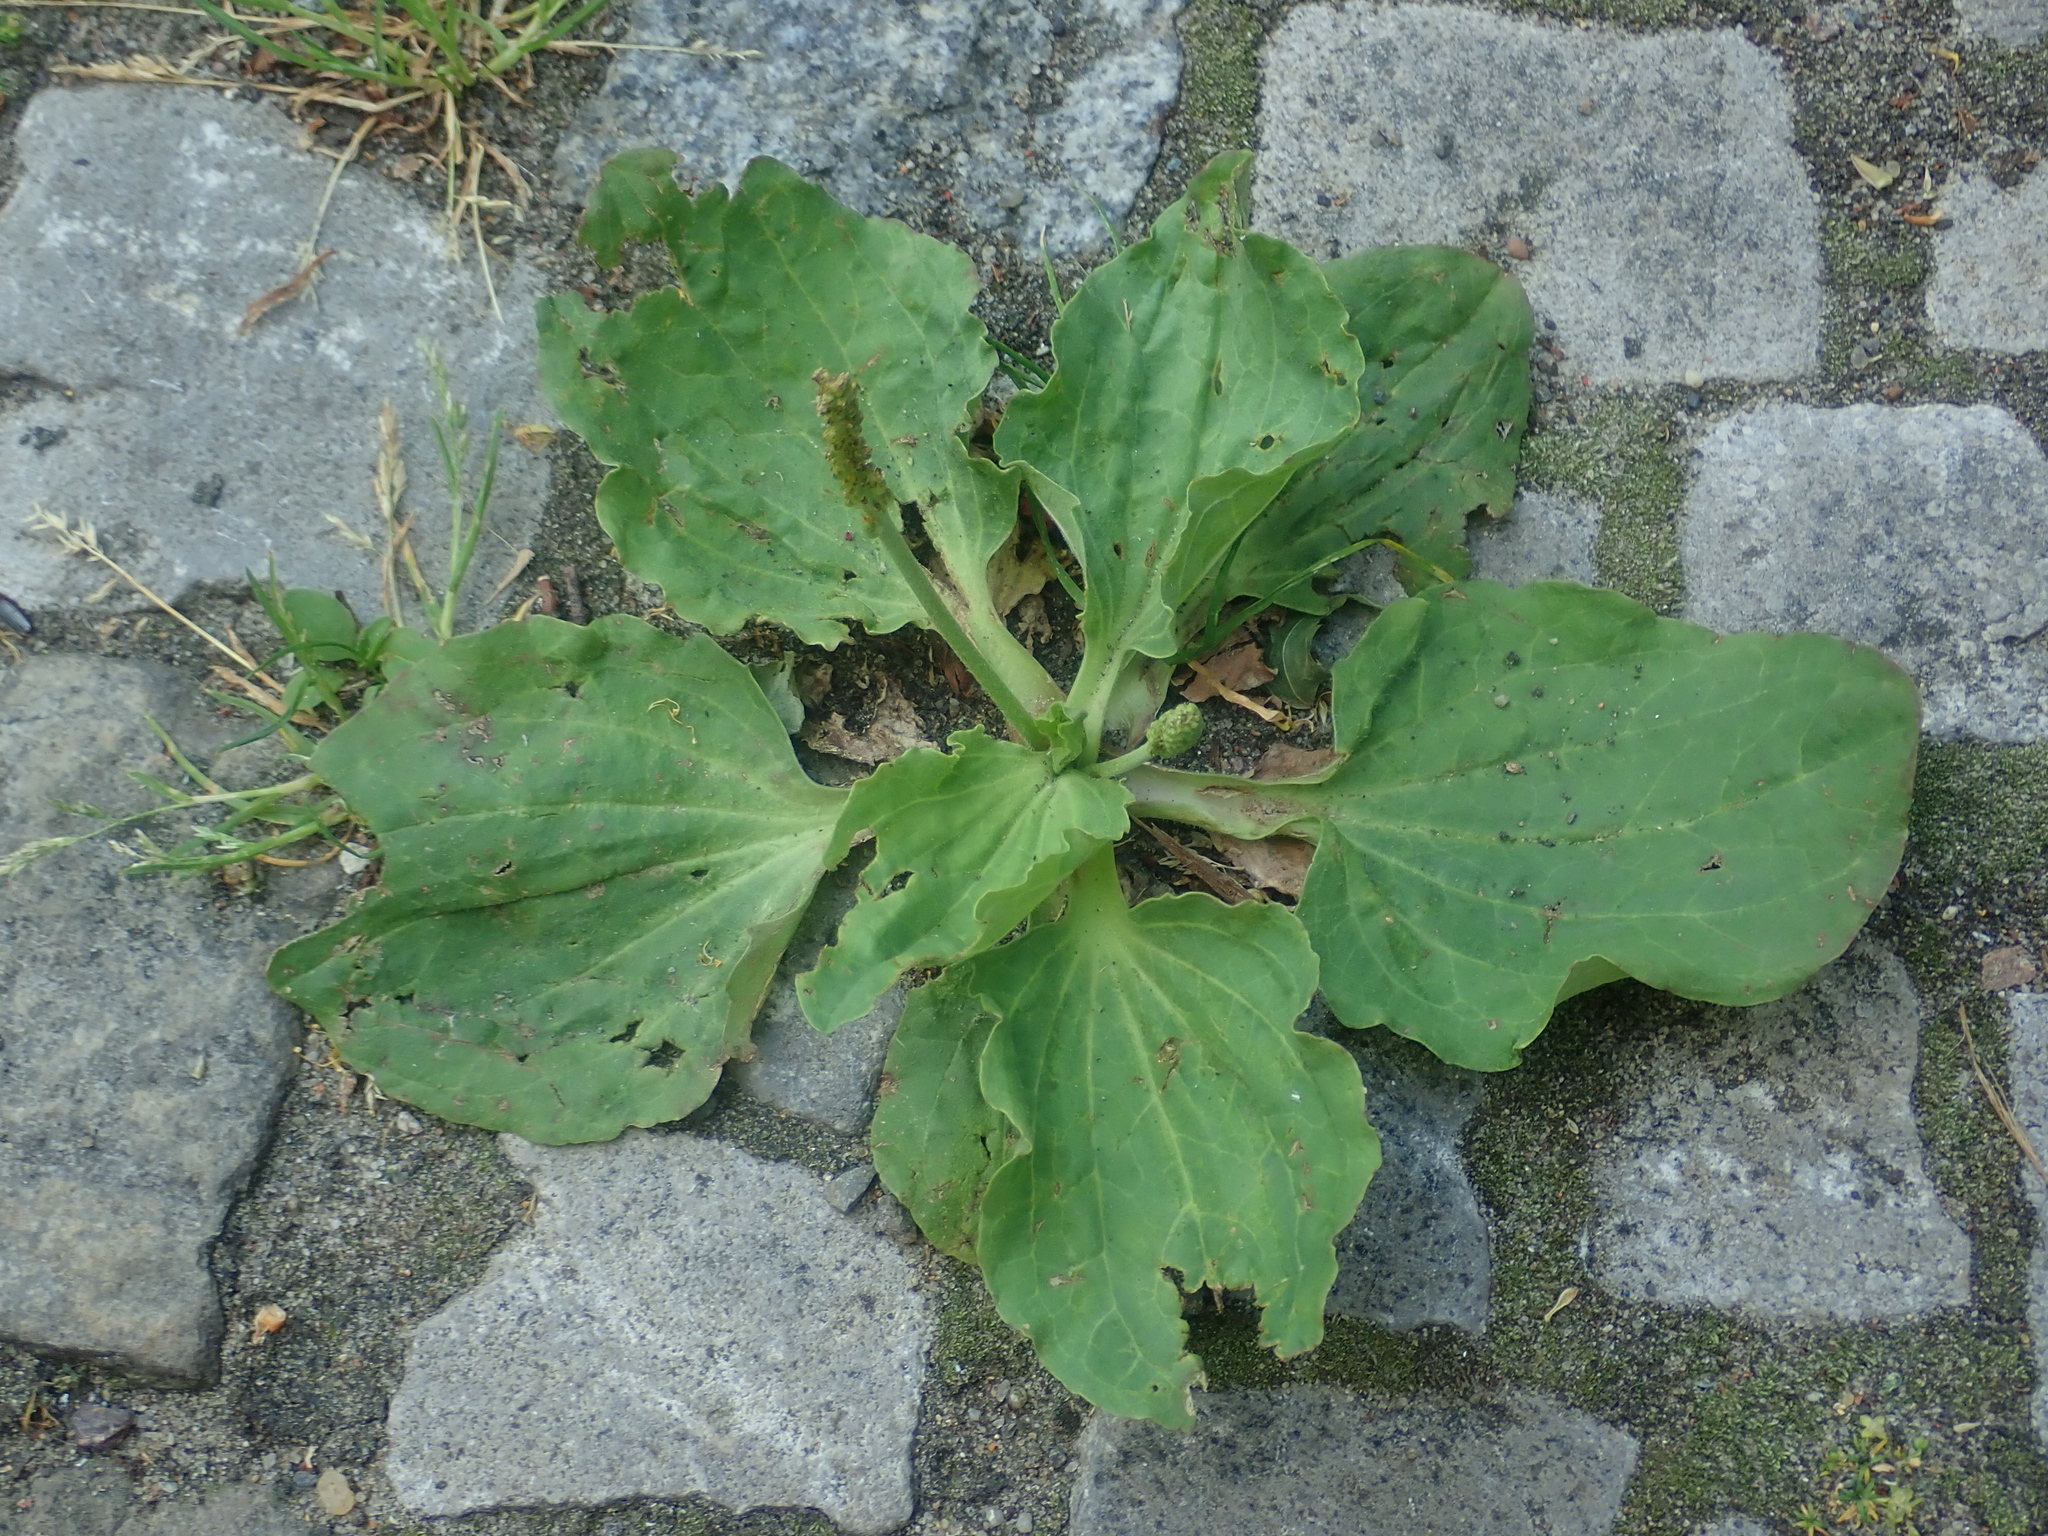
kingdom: Plantae
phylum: Tracheophyta
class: Magnoliopsida
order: Lamiales
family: Plantaginaceae
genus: Plantago
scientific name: Plantago major
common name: Common plantain
